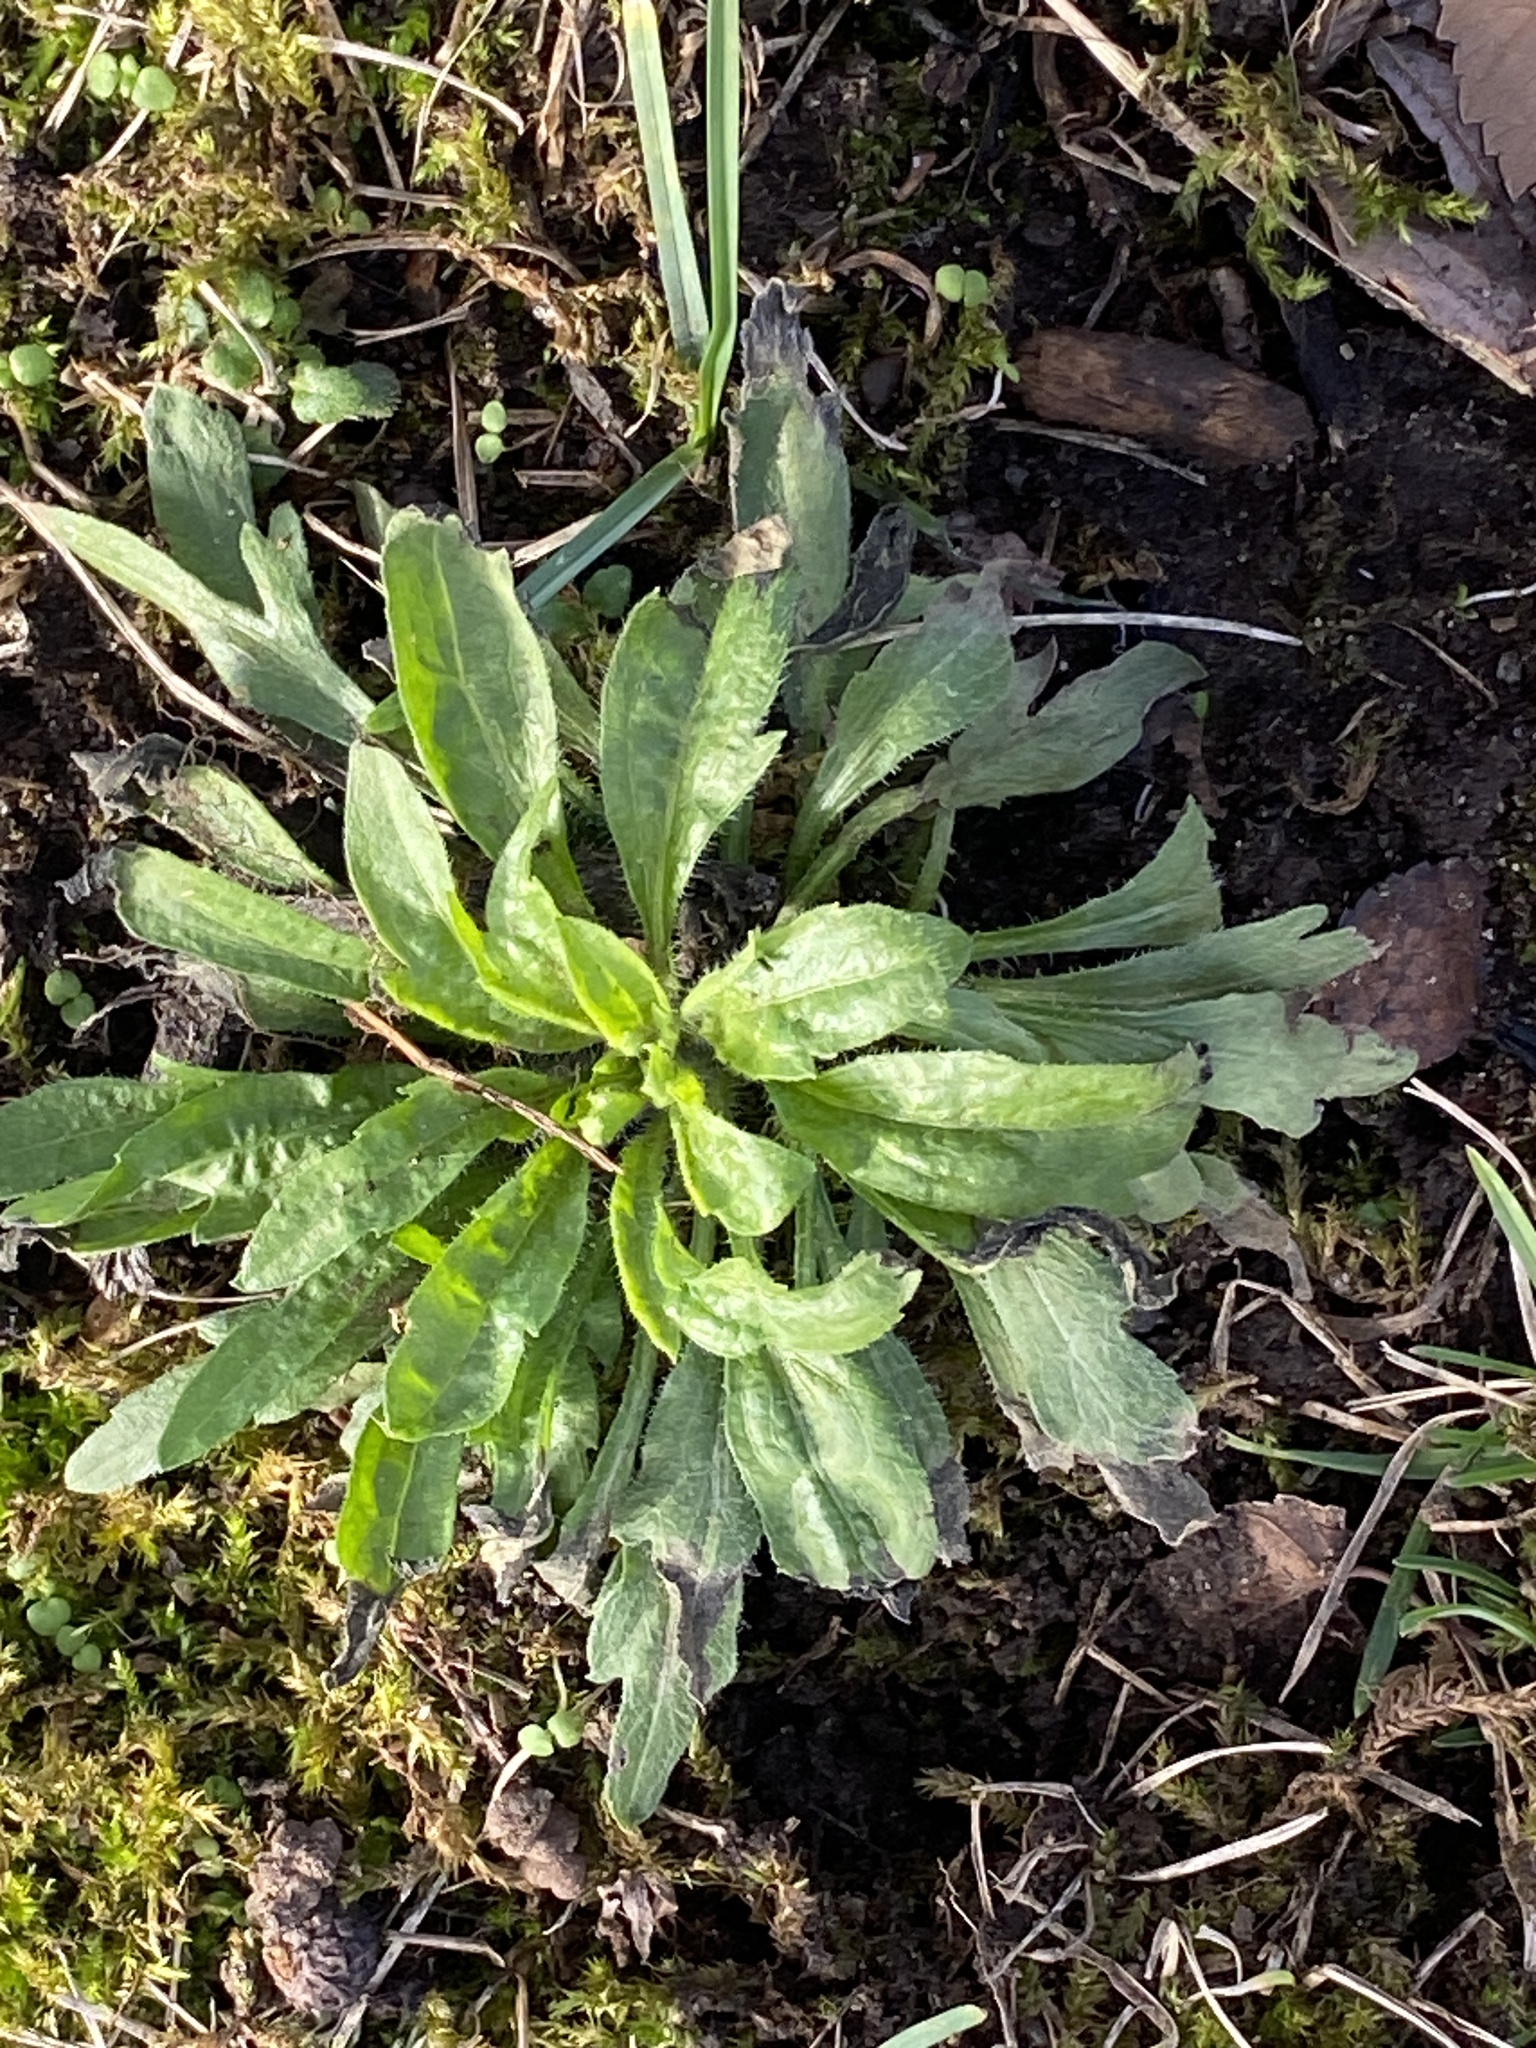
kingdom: Plantae
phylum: Tracheophyta
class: Magnoliopsida
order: Asterales
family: Asteraceae
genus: Erigeron
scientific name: Erigeron canadensis
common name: Canadian fleabane
